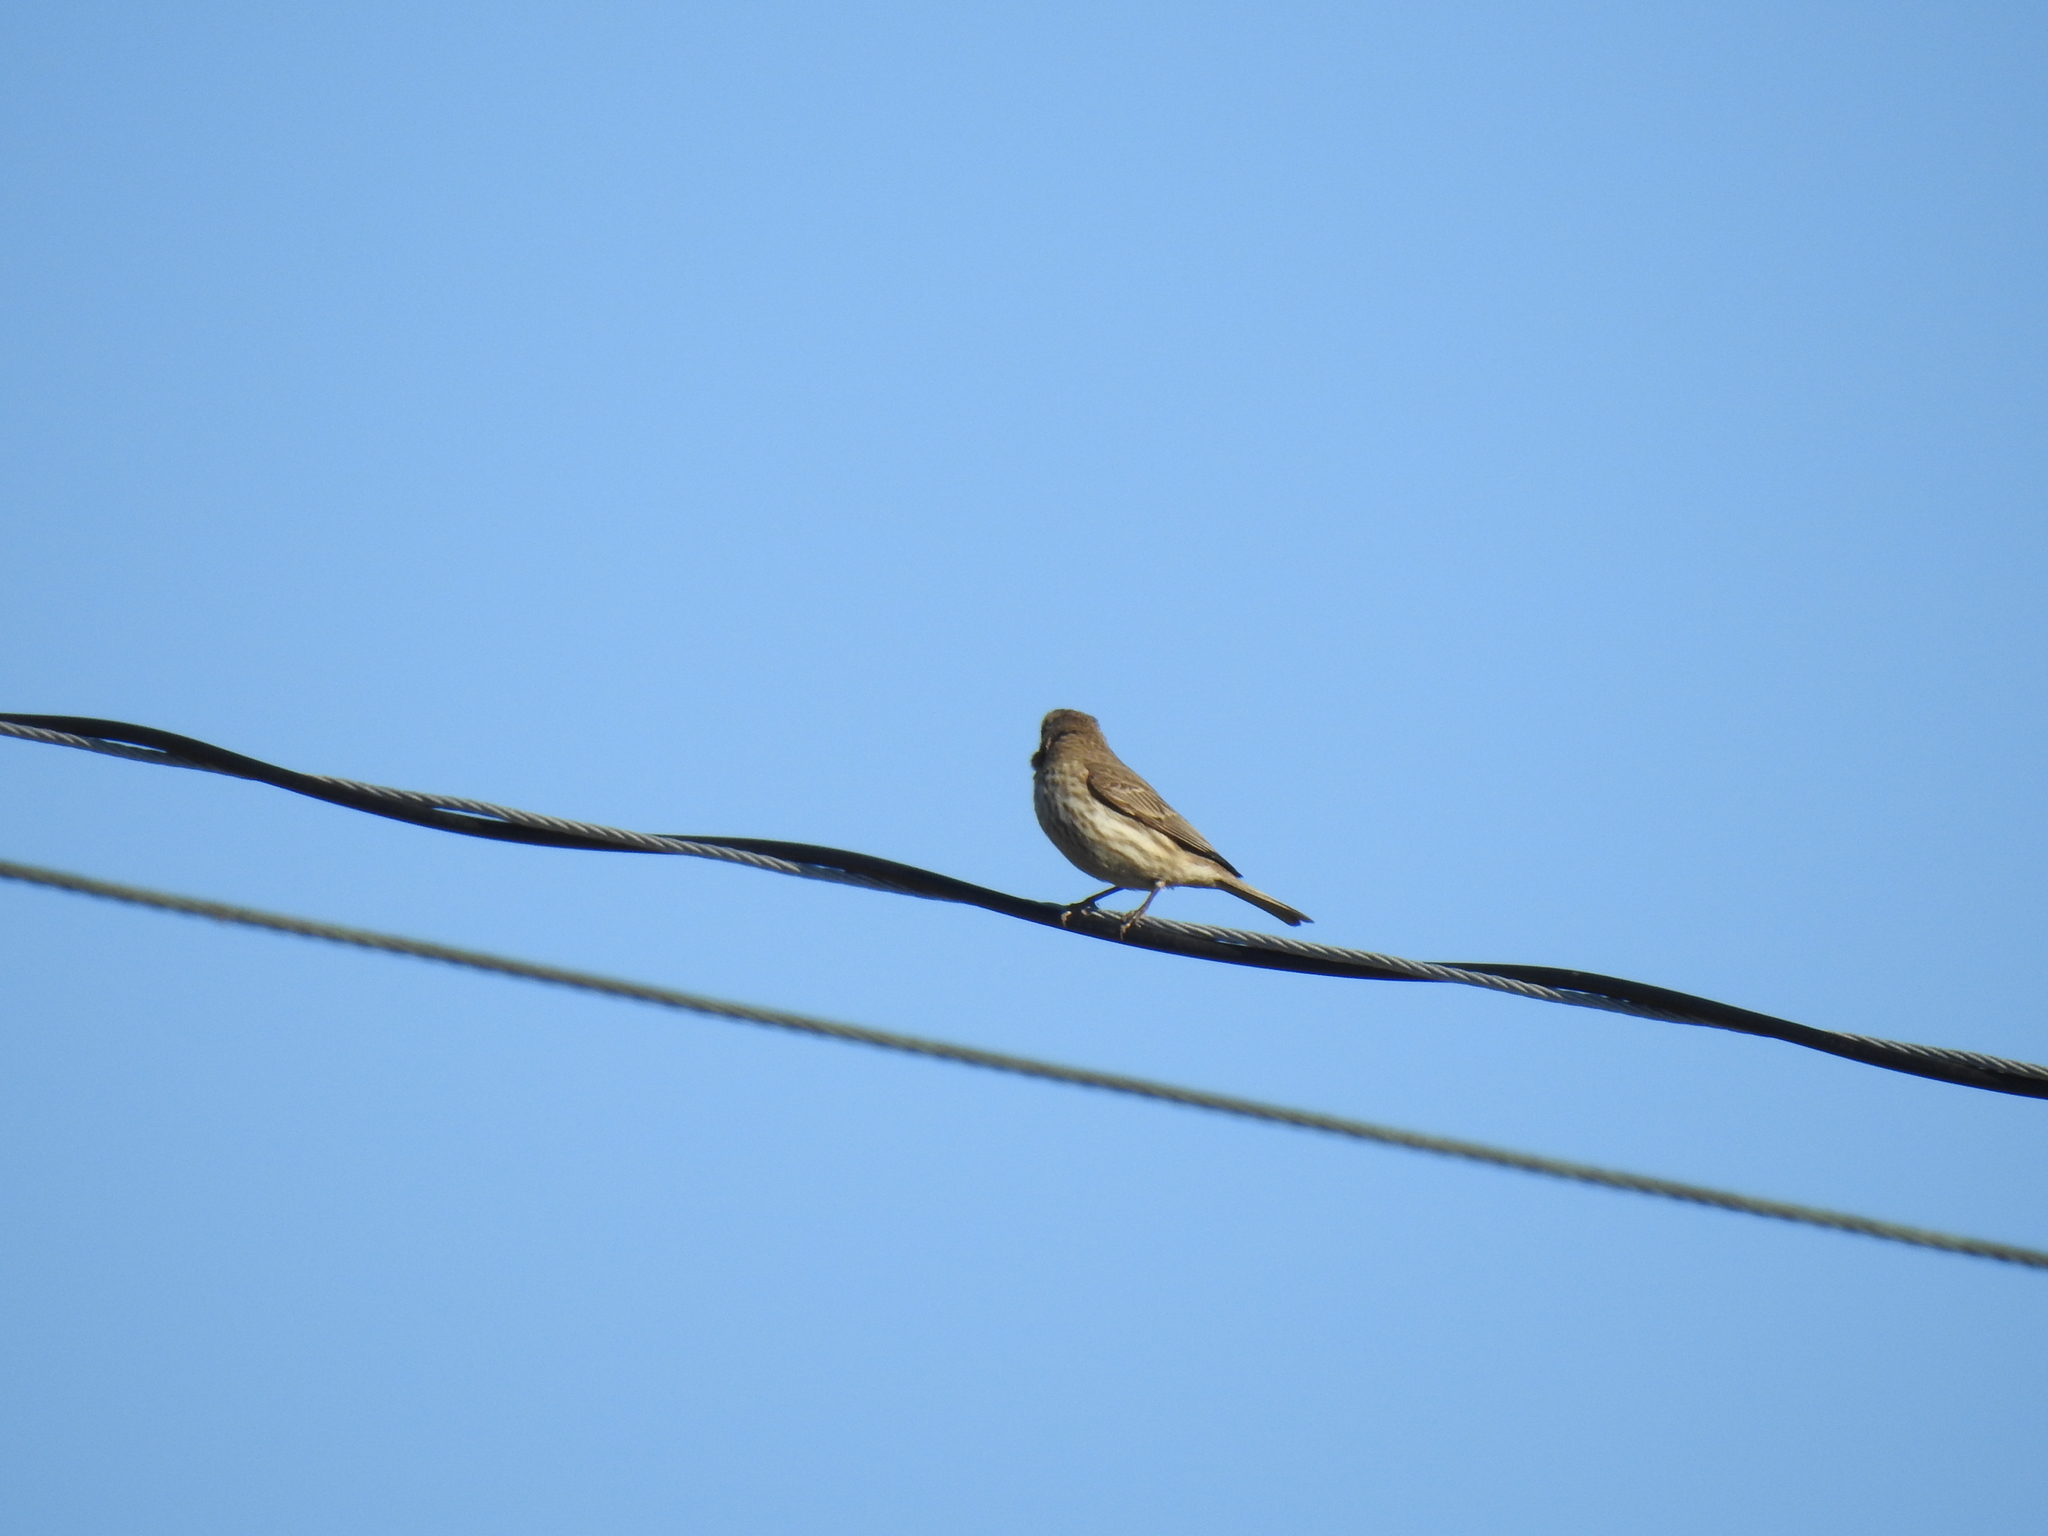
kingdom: Animalia
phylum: Chordata
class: Aves
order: Passeriformes
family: Fringillidae
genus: Haemorhous
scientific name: Haemorhous mexicanus
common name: House finch
